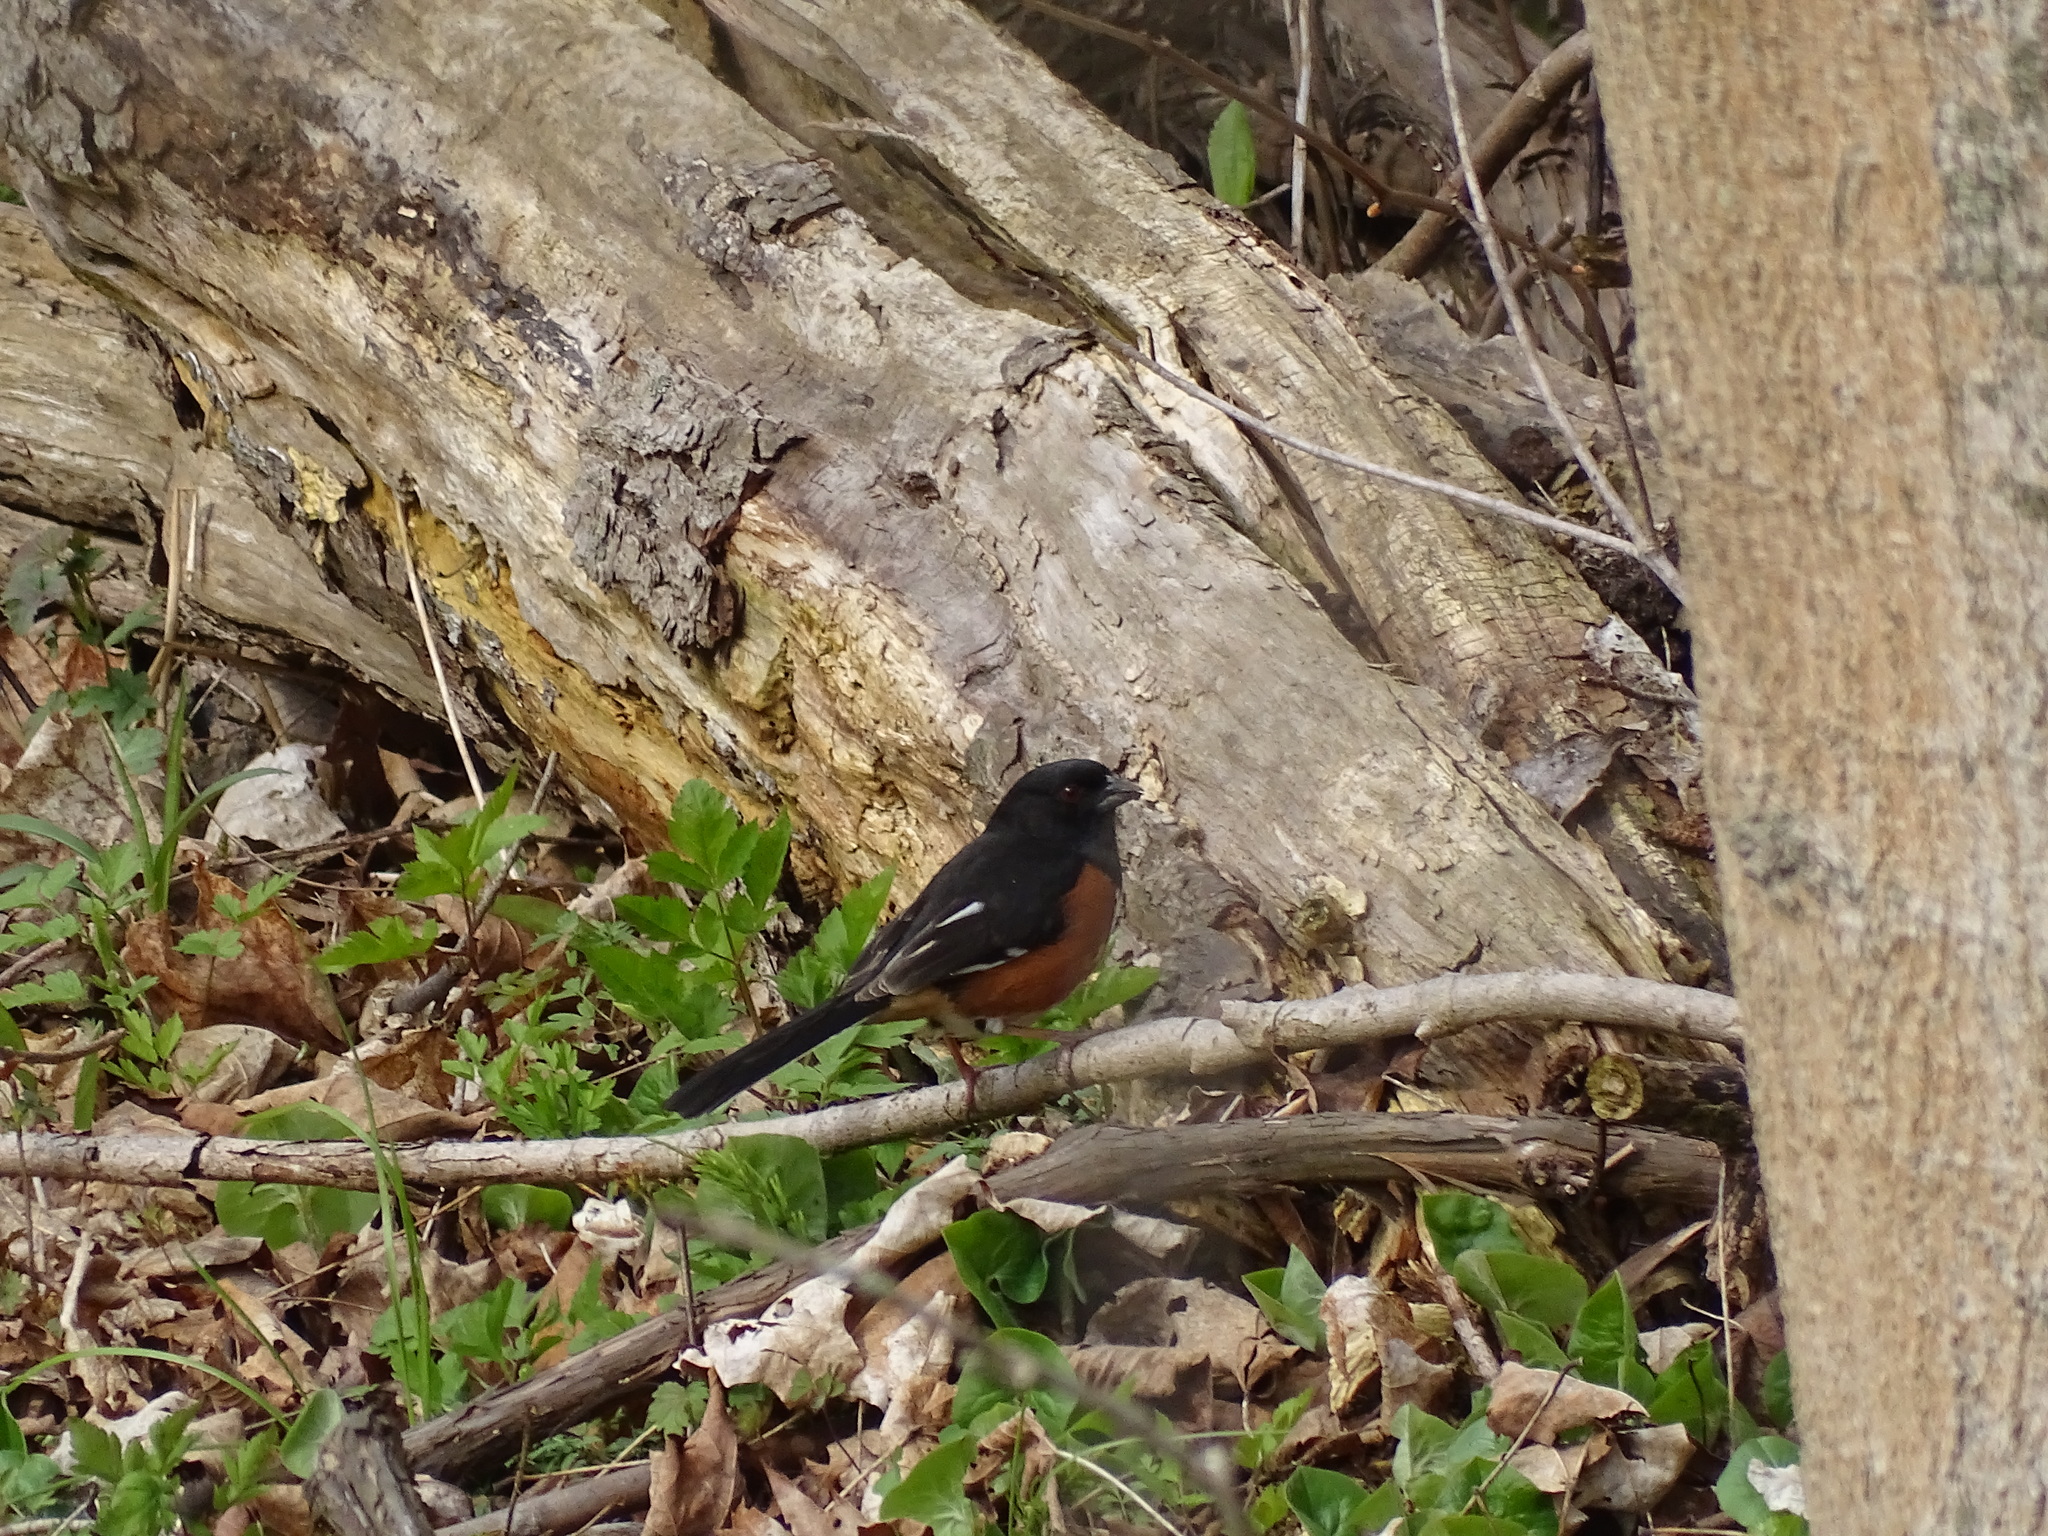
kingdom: Animalia
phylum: Chordata
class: Aves
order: Passeriformes
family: Passerellidae
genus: Pipilo
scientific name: Pipilo erythrophthalmus
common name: Eastern towhee
